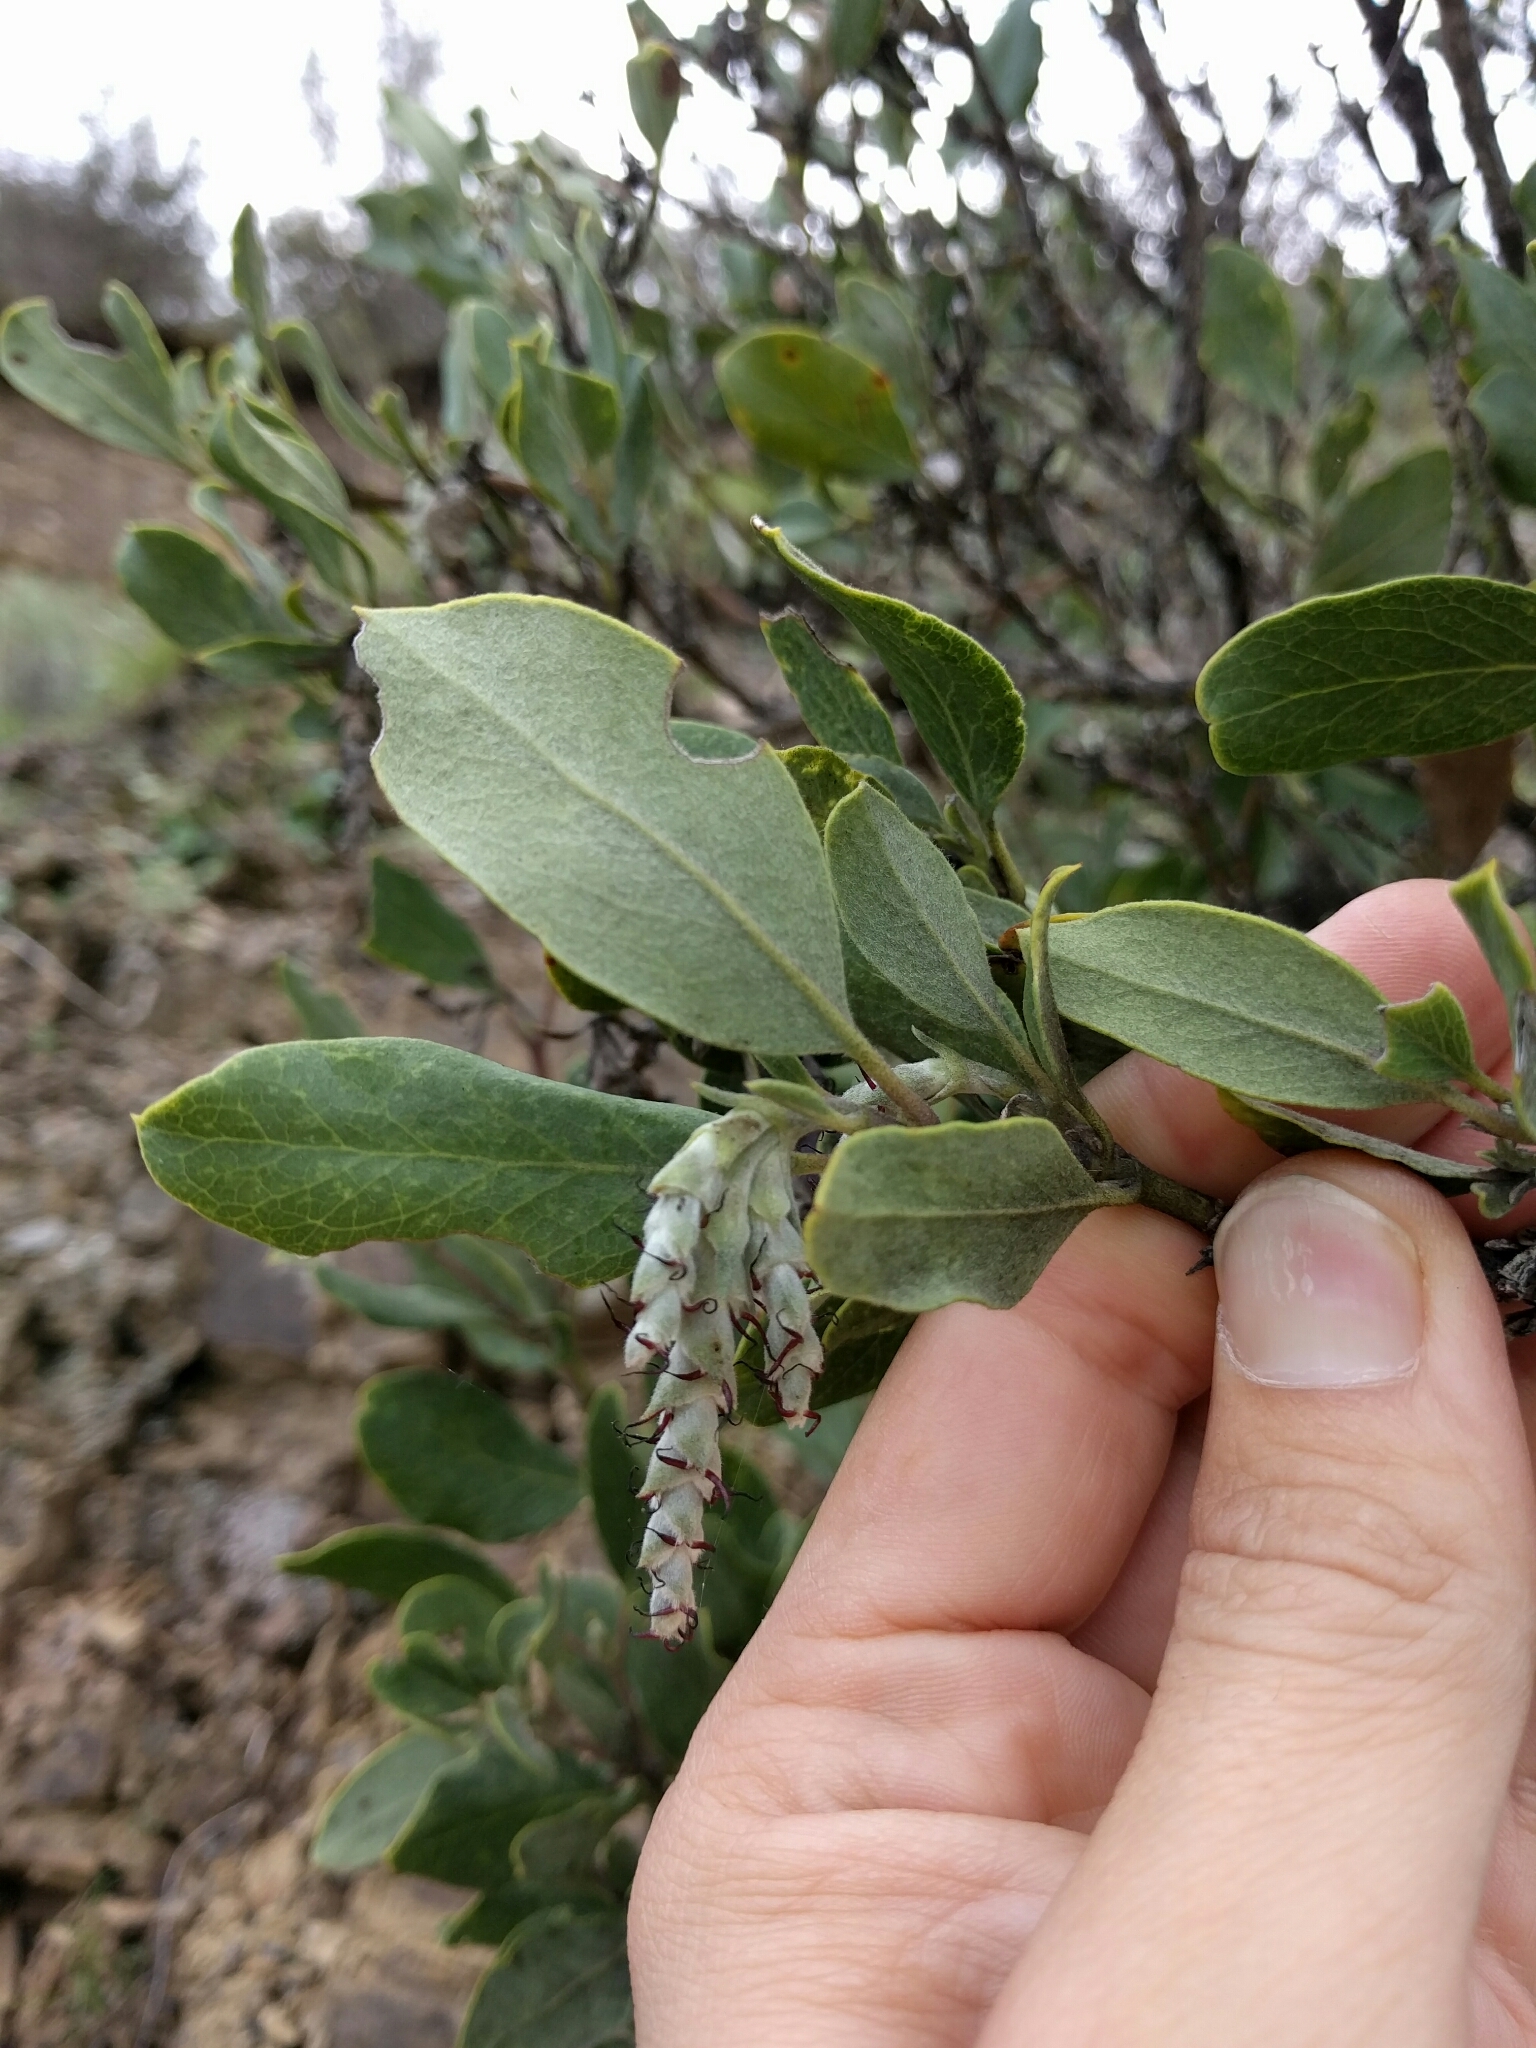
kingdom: Plantae
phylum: Tracheophyta
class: Magnoliopsida
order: Garryales
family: Garryaceae
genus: Garrya
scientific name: Garrya flavescens
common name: Ashy silk-tassel
